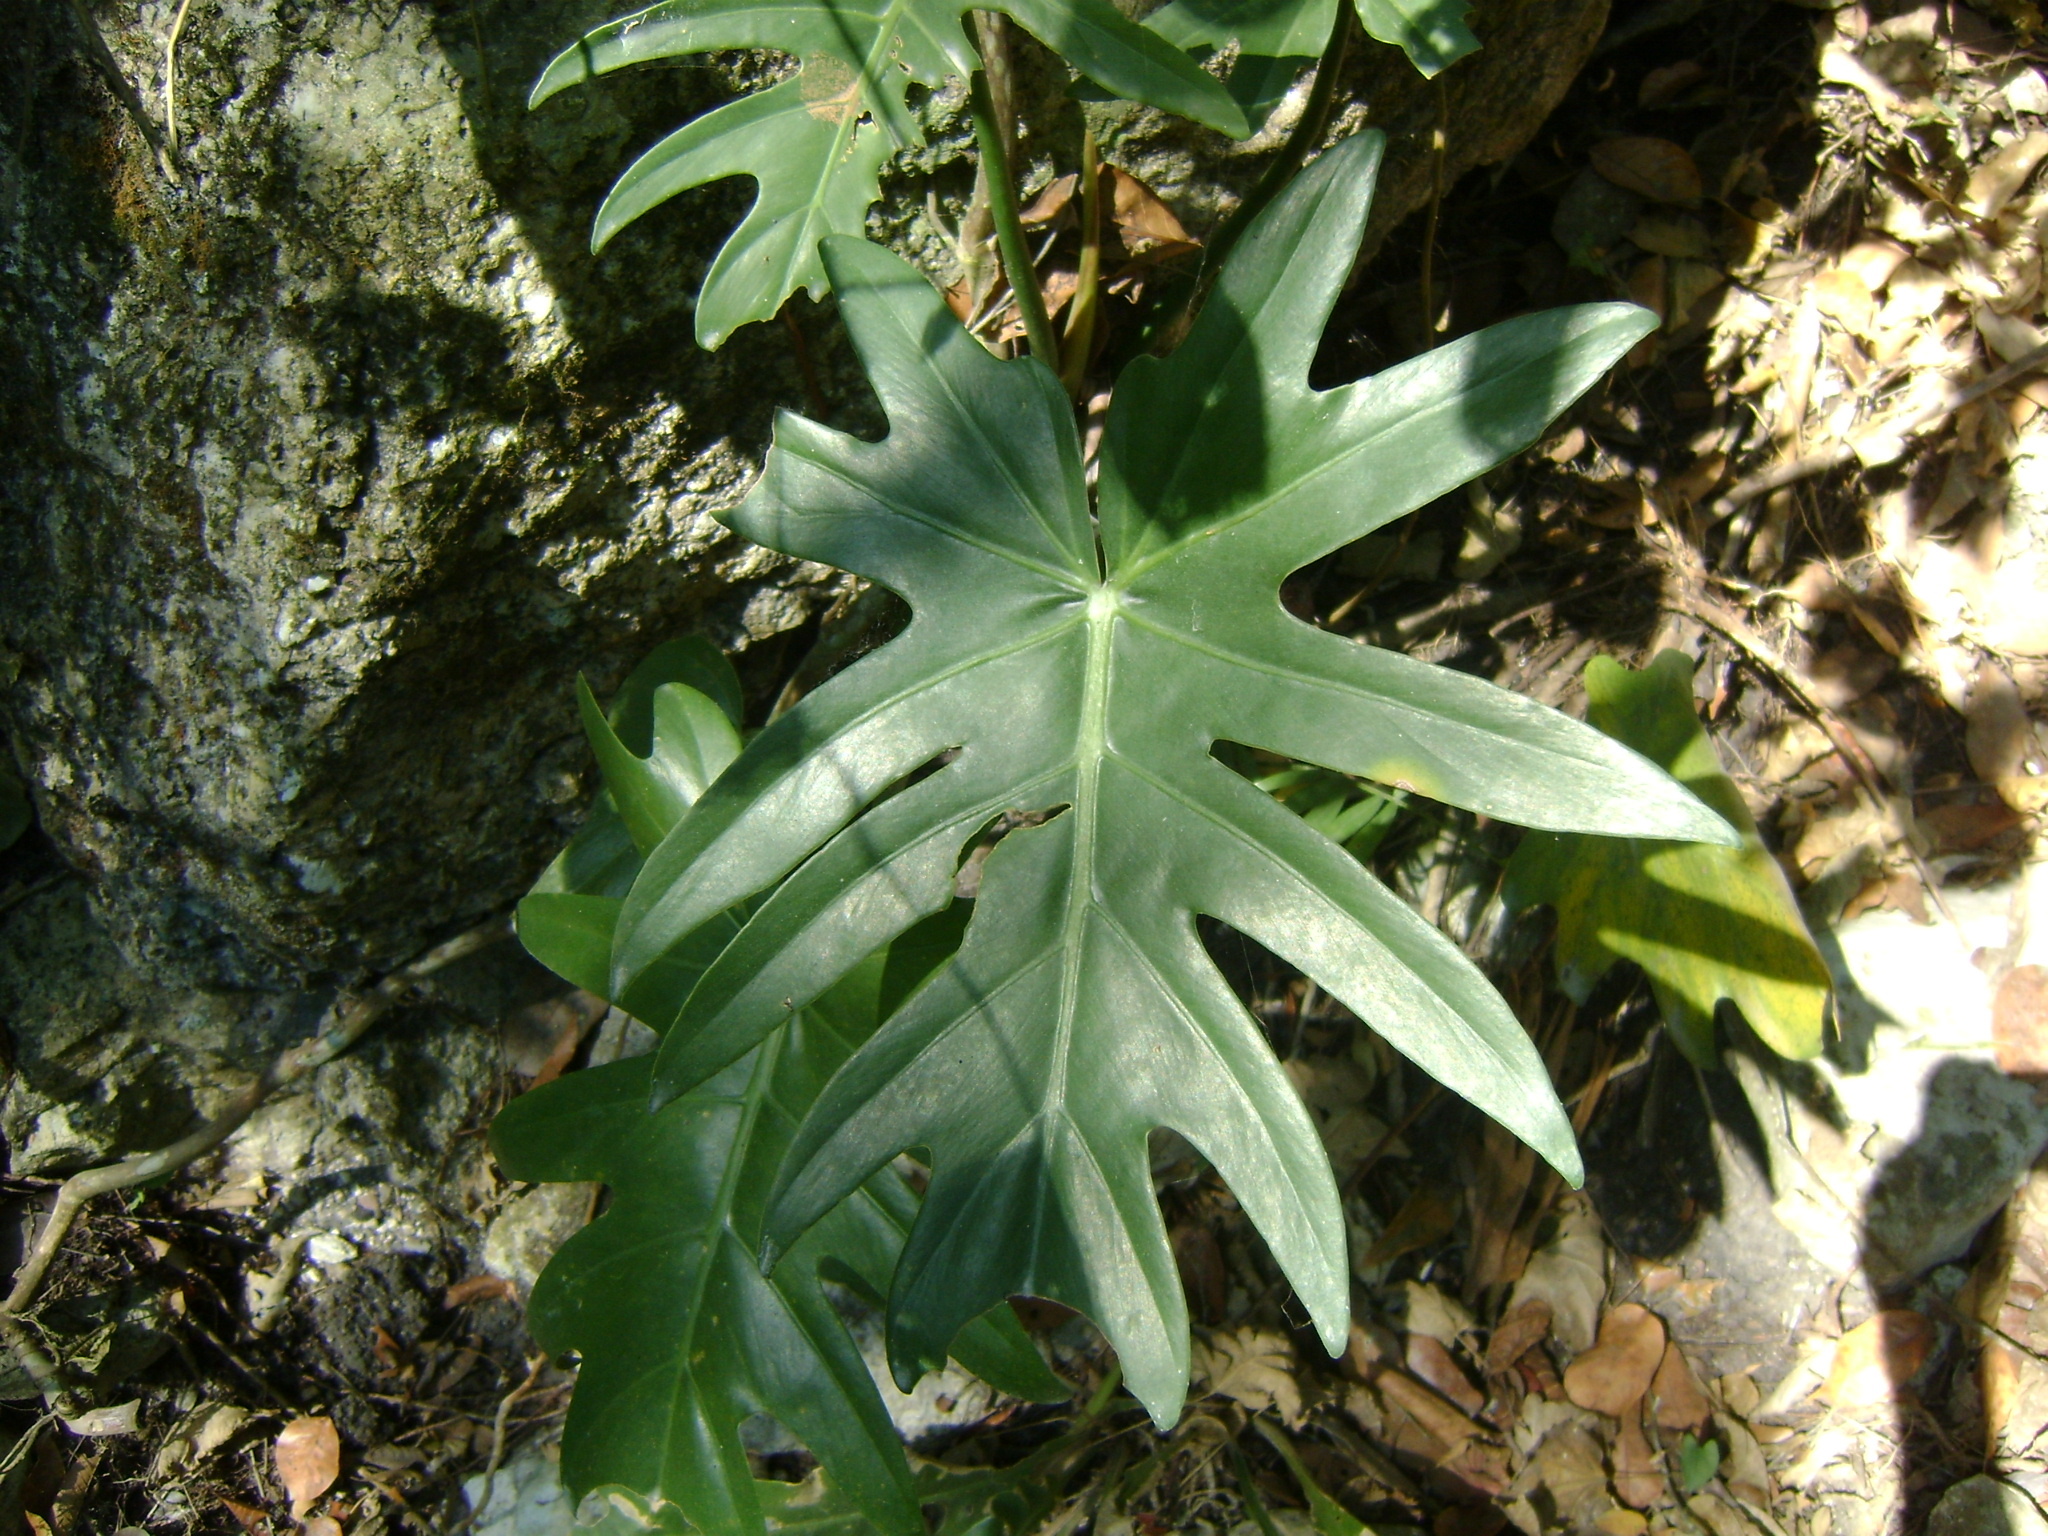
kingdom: Plantae
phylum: Tracheophyta
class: Liliopsida
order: Alismatales
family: Araceae
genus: Philodendron
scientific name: Philodendron radiatum
